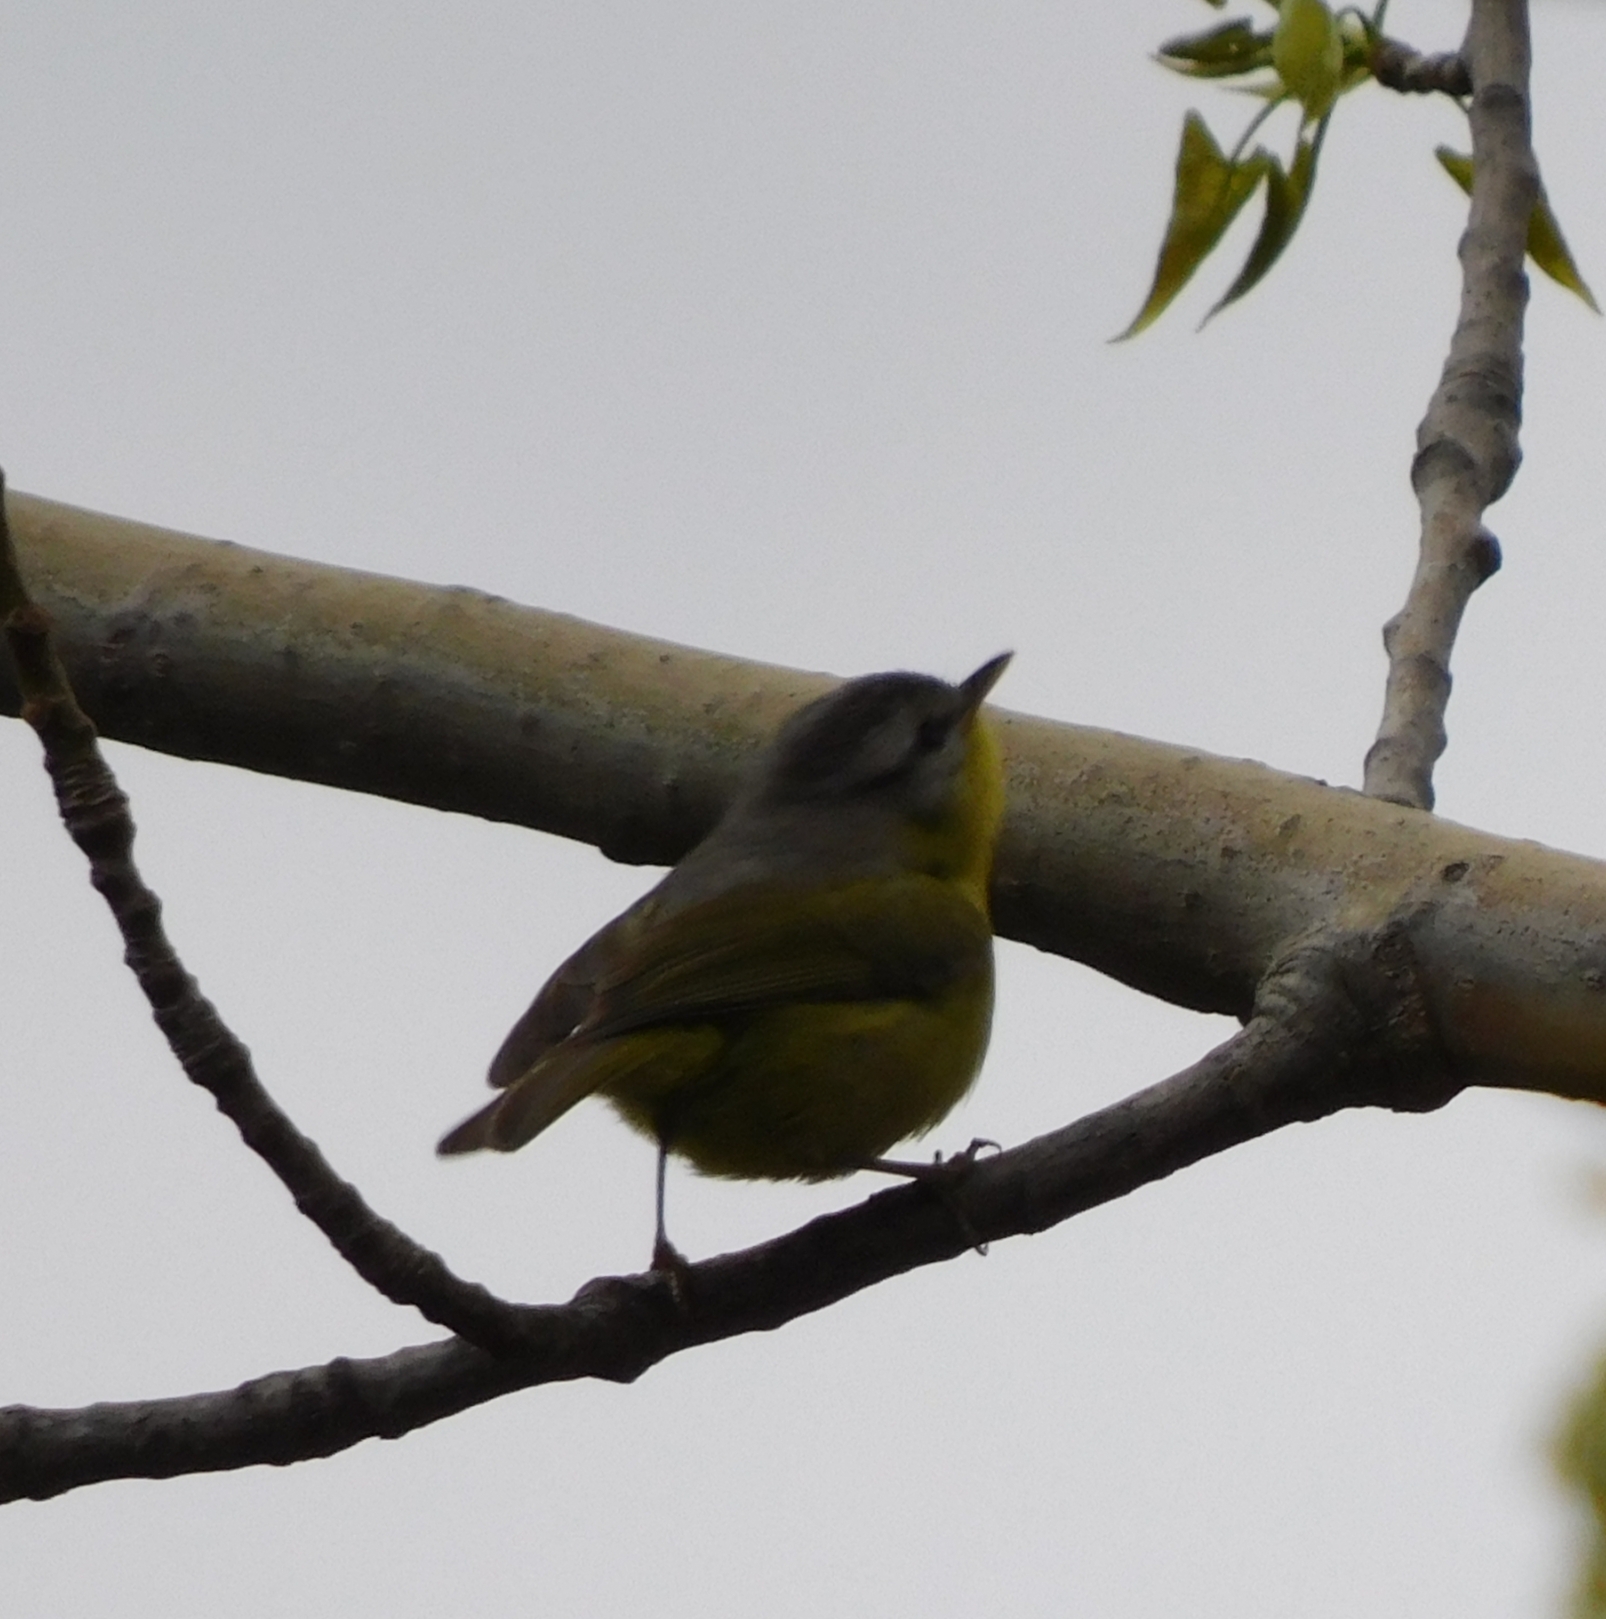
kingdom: Animalia
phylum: Chordata
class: Aves
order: Passeriformes
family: Phylloscopidae
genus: Phylloscopus
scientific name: Phylloscopus xanthoschistos
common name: Grey-hooded warbler
